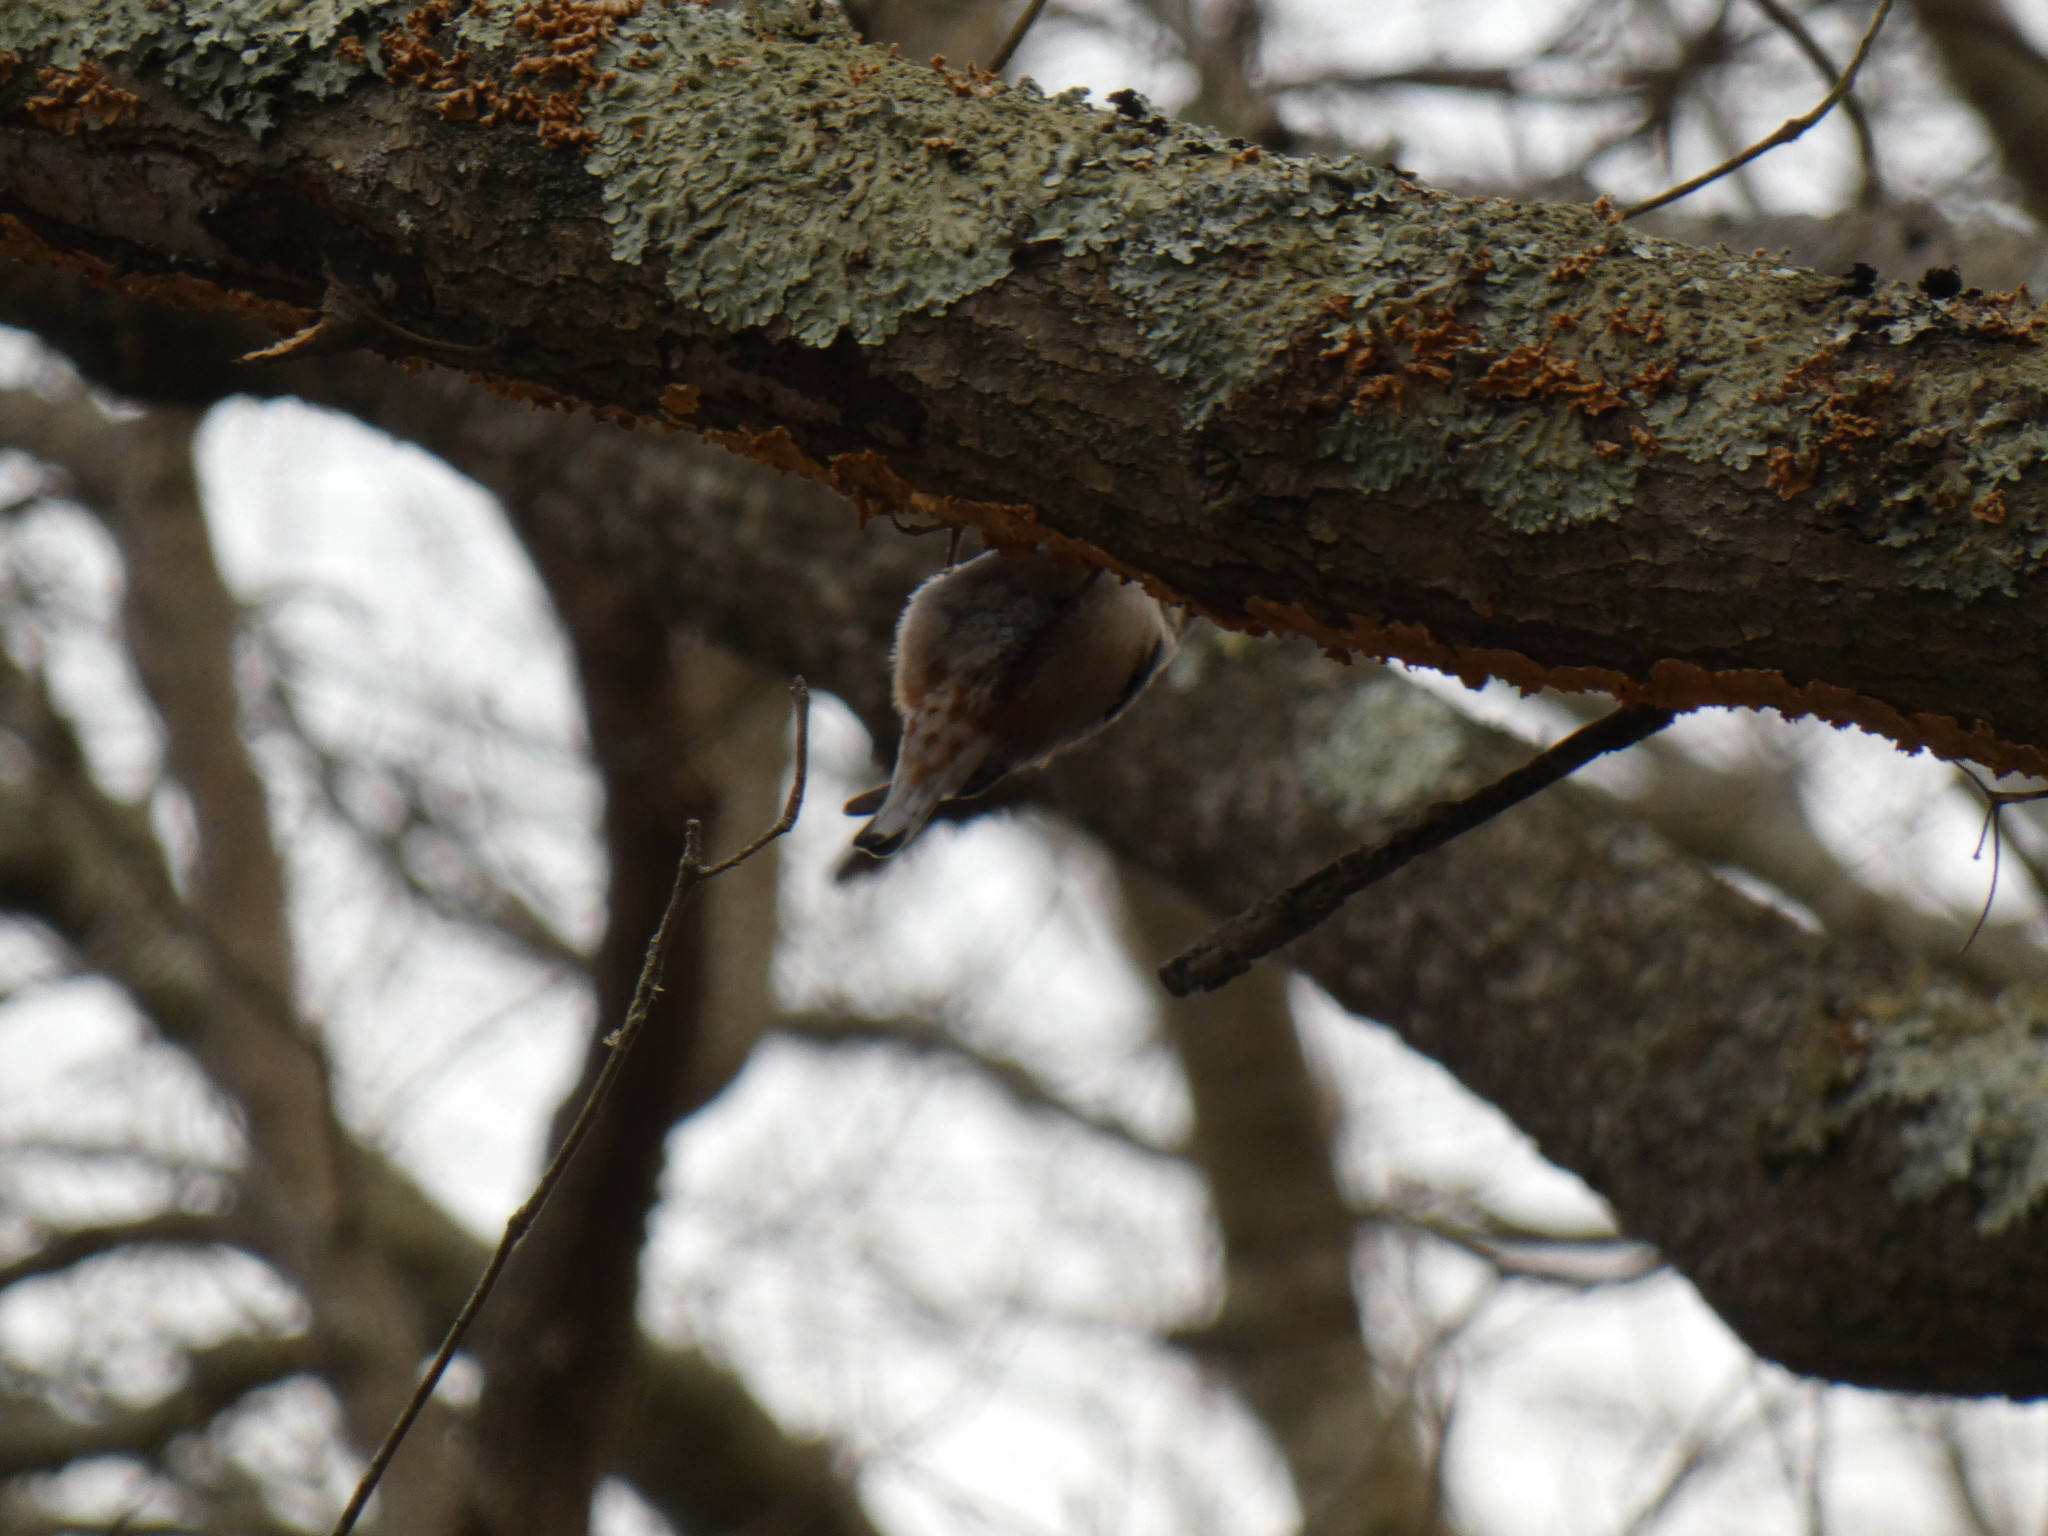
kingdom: Animalia
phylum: Chordata
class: Aves
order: Passeriformes
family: Sittidae
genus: Sitta
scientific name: Sitta carolinensis
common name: White-breasted nuthatch
